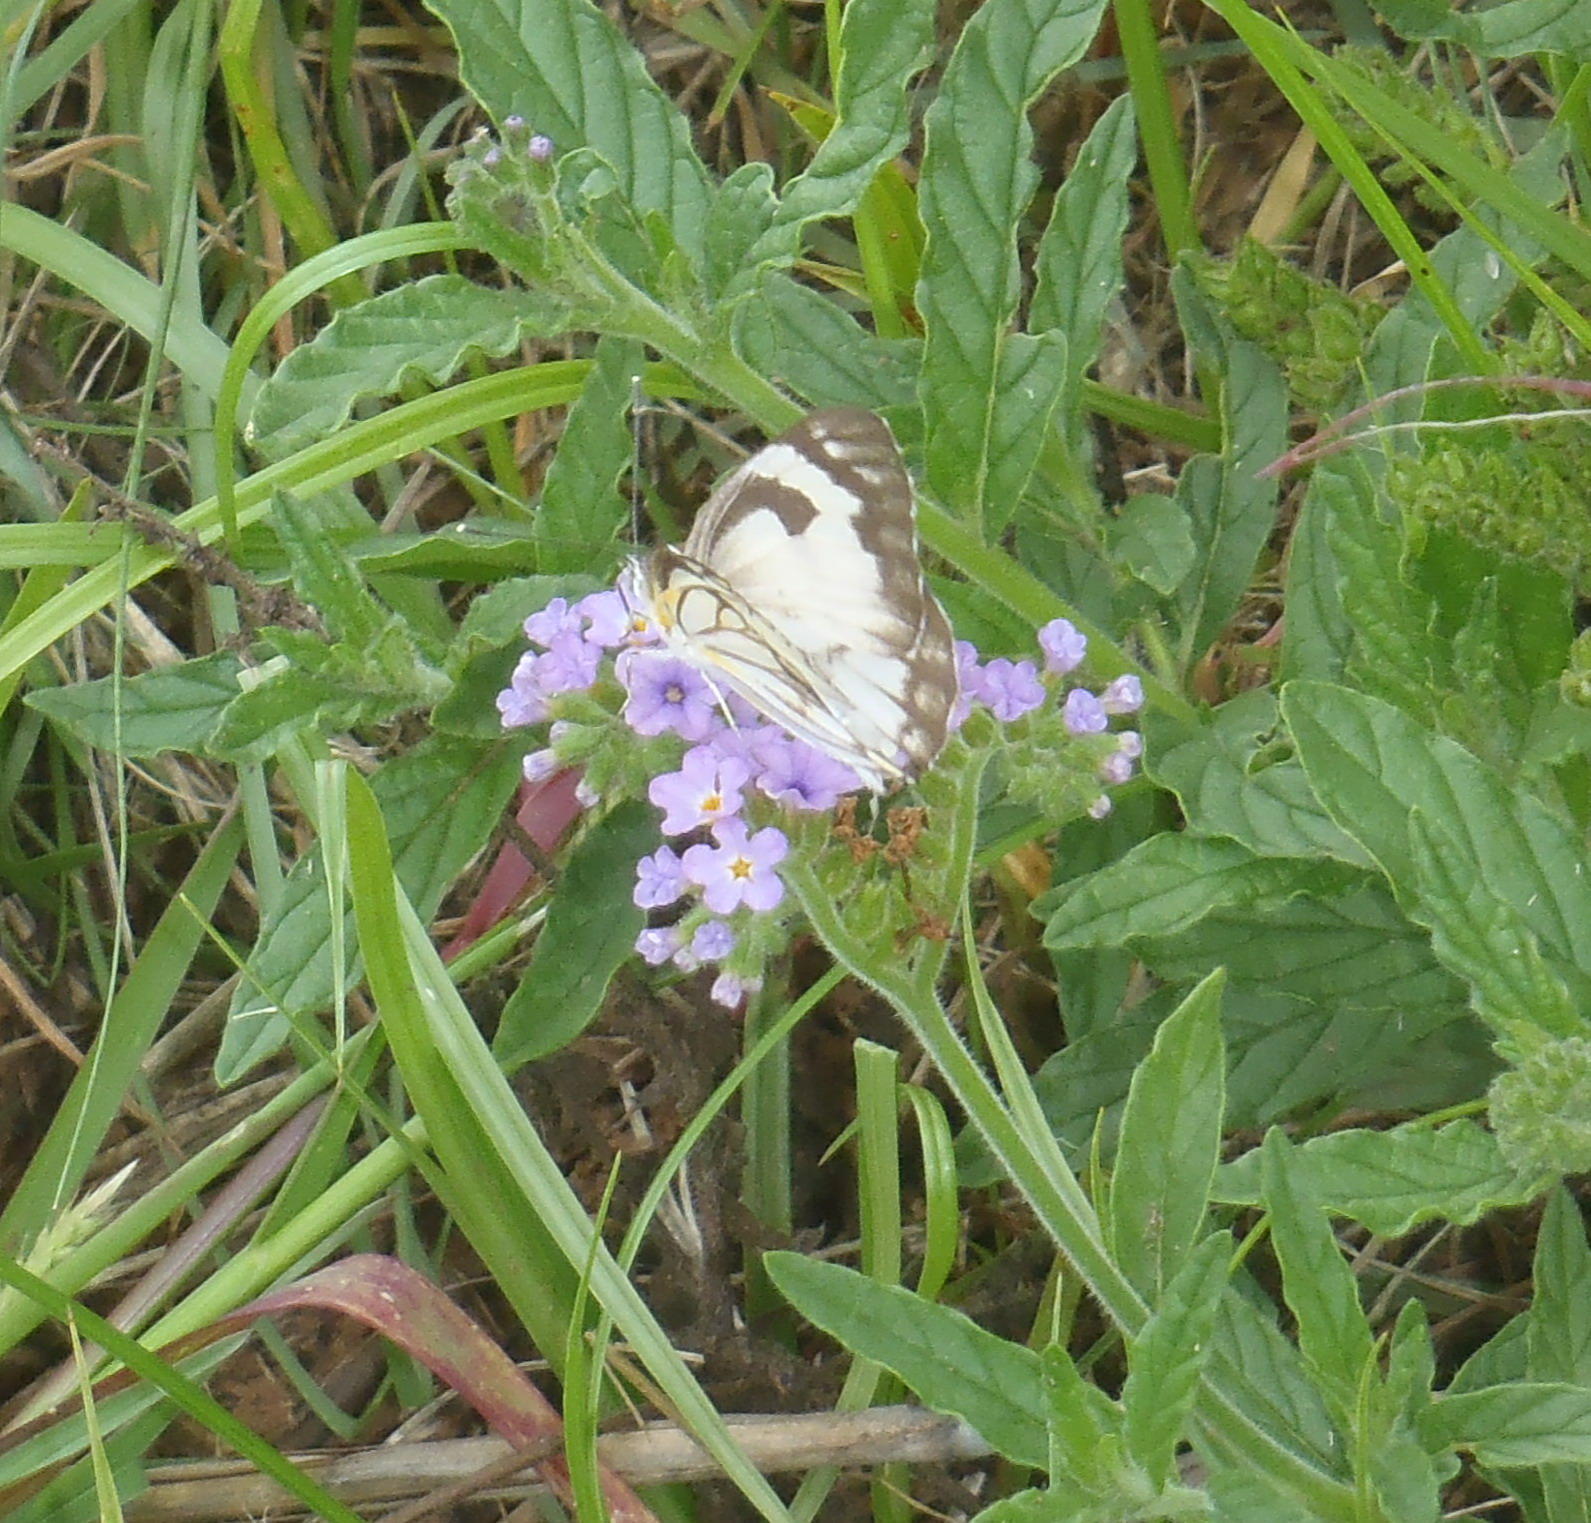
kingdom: Animalia
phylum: Arthropoda
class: Insecta
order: Lepidoptera
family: Pieridae
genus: Belenois
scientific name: Belenois aurota
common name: Brown-veined white
